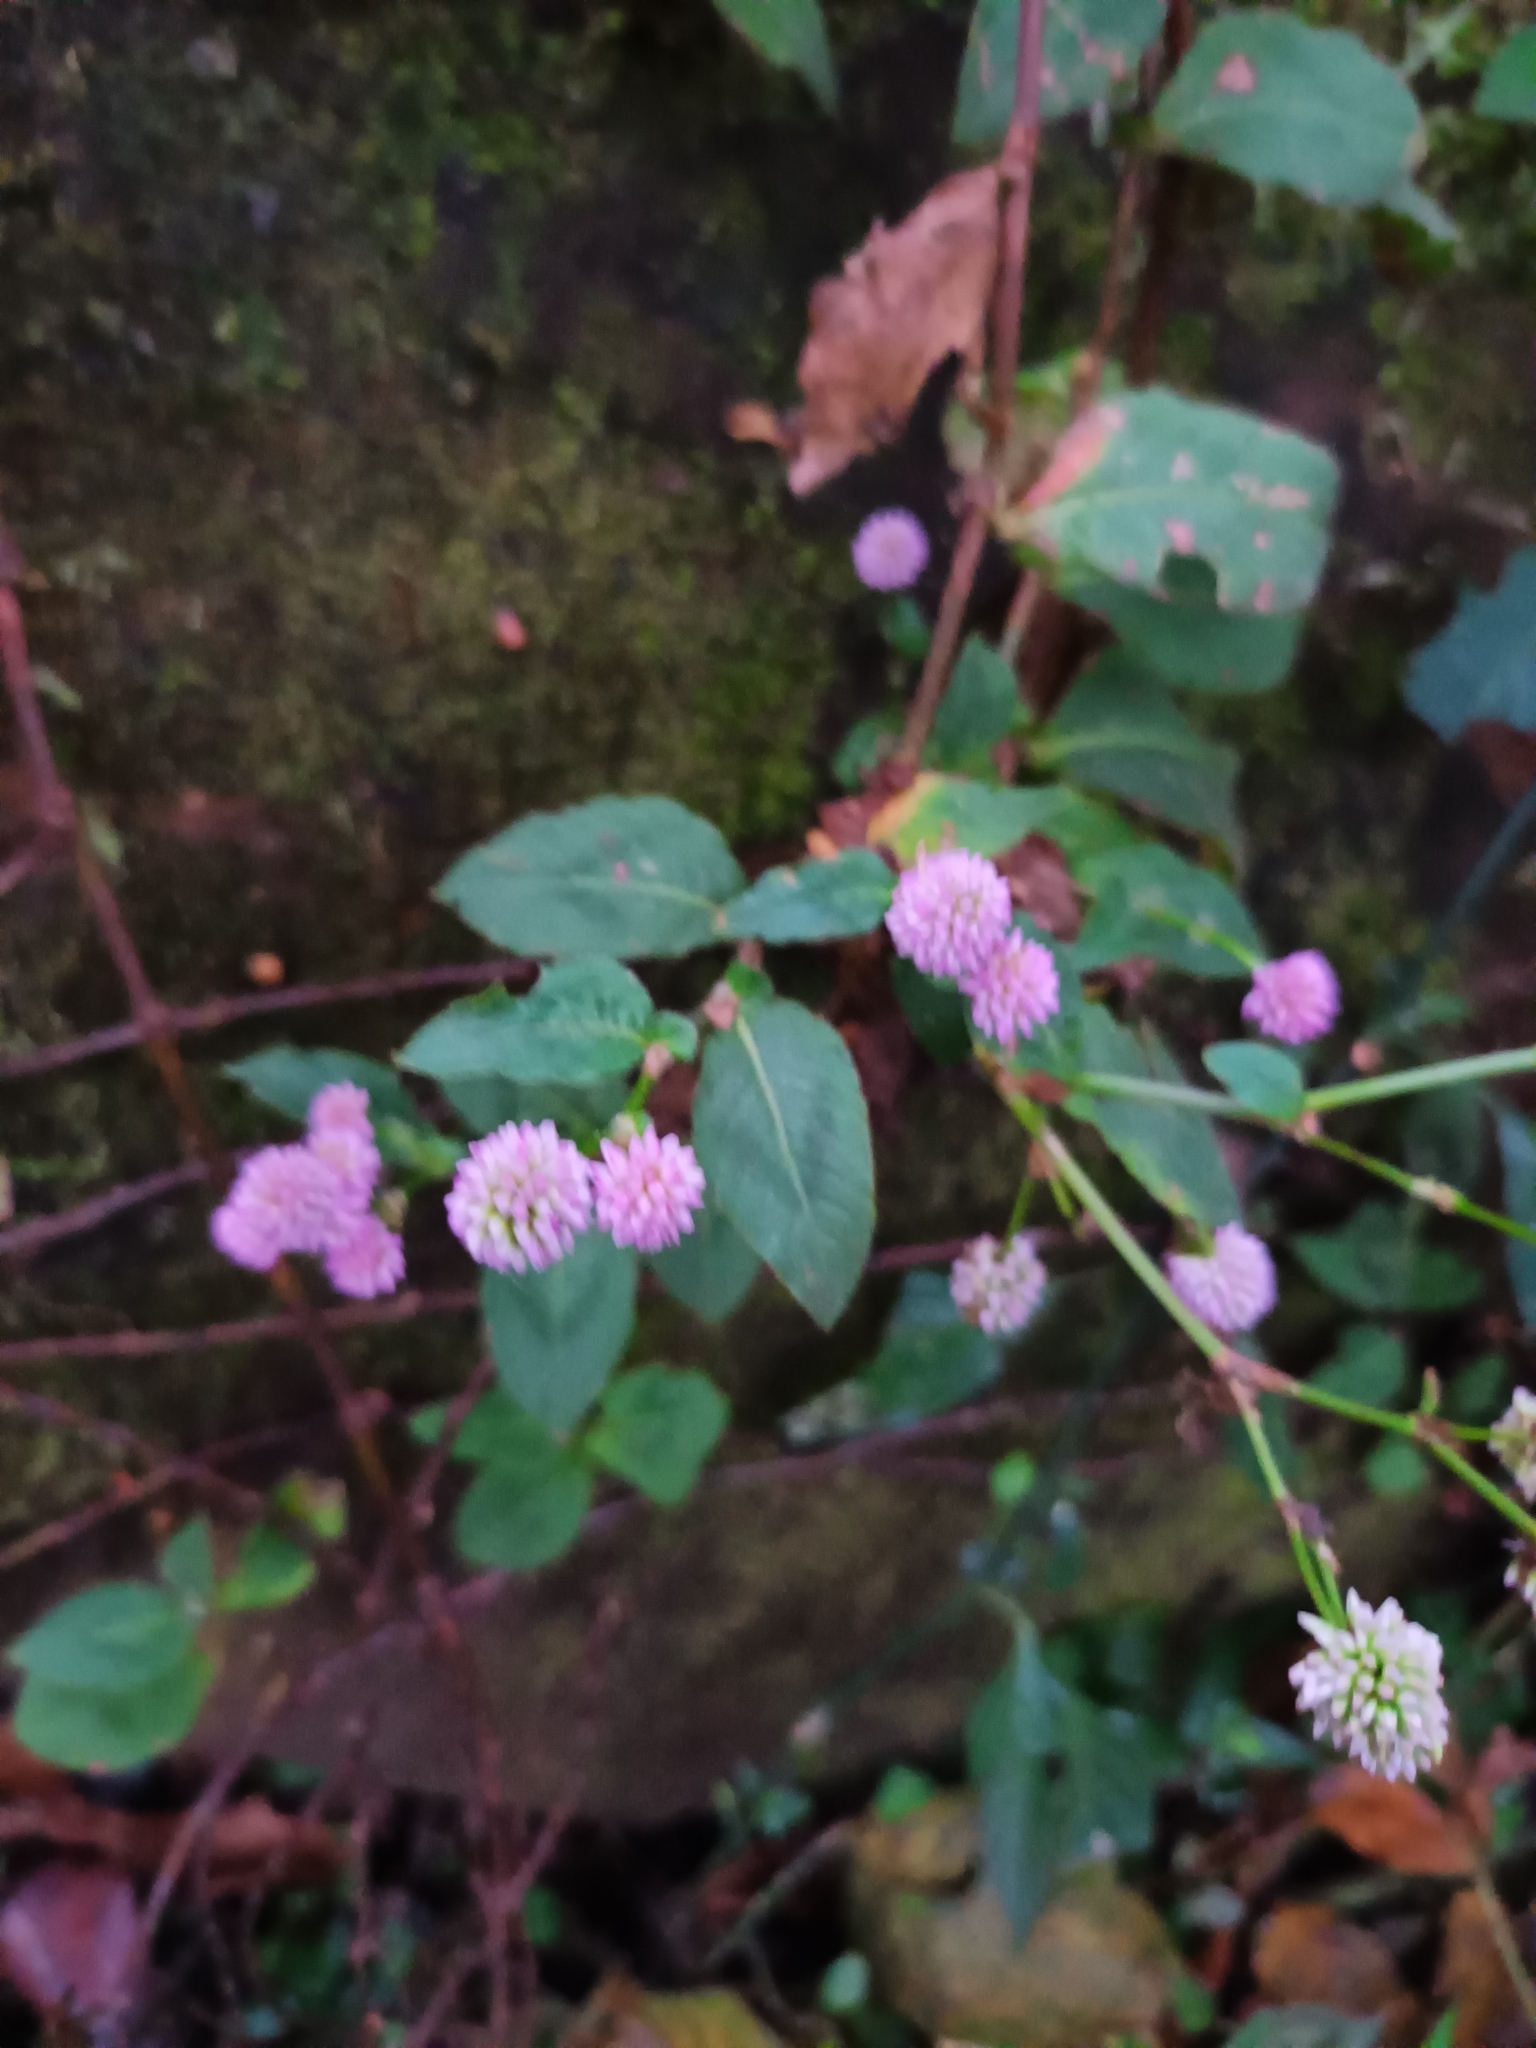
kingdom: Plantae
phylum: Tracheophyta
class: Magnoliopsida
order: Caryophyllales
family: Polygonaceae
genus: Persicaria
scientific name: Persicaria capitata
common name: Pinkhead smartweed
